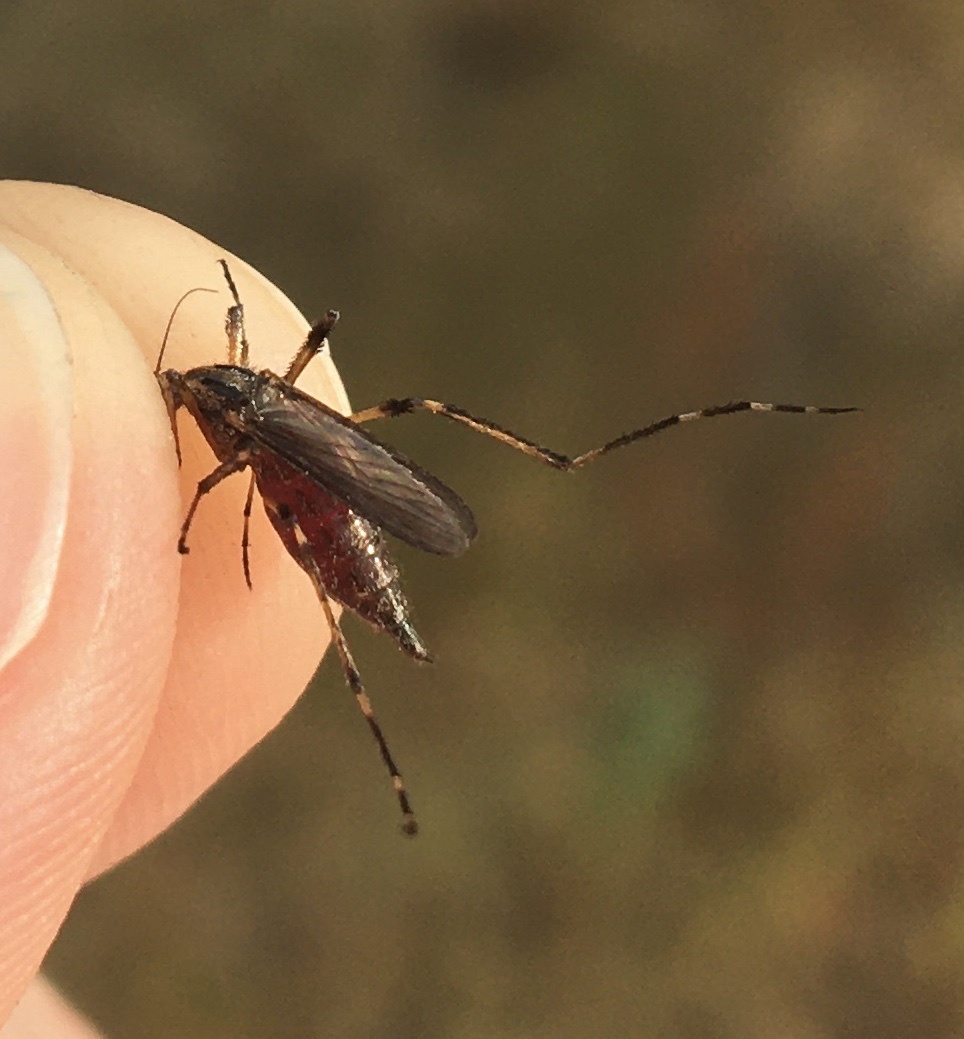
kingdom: Animalia
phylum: Arthropoda
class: Insecta
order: Diptera
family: Culicidae
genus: Psorophora
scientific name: Psorophora ciliata
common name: Gallinipper
